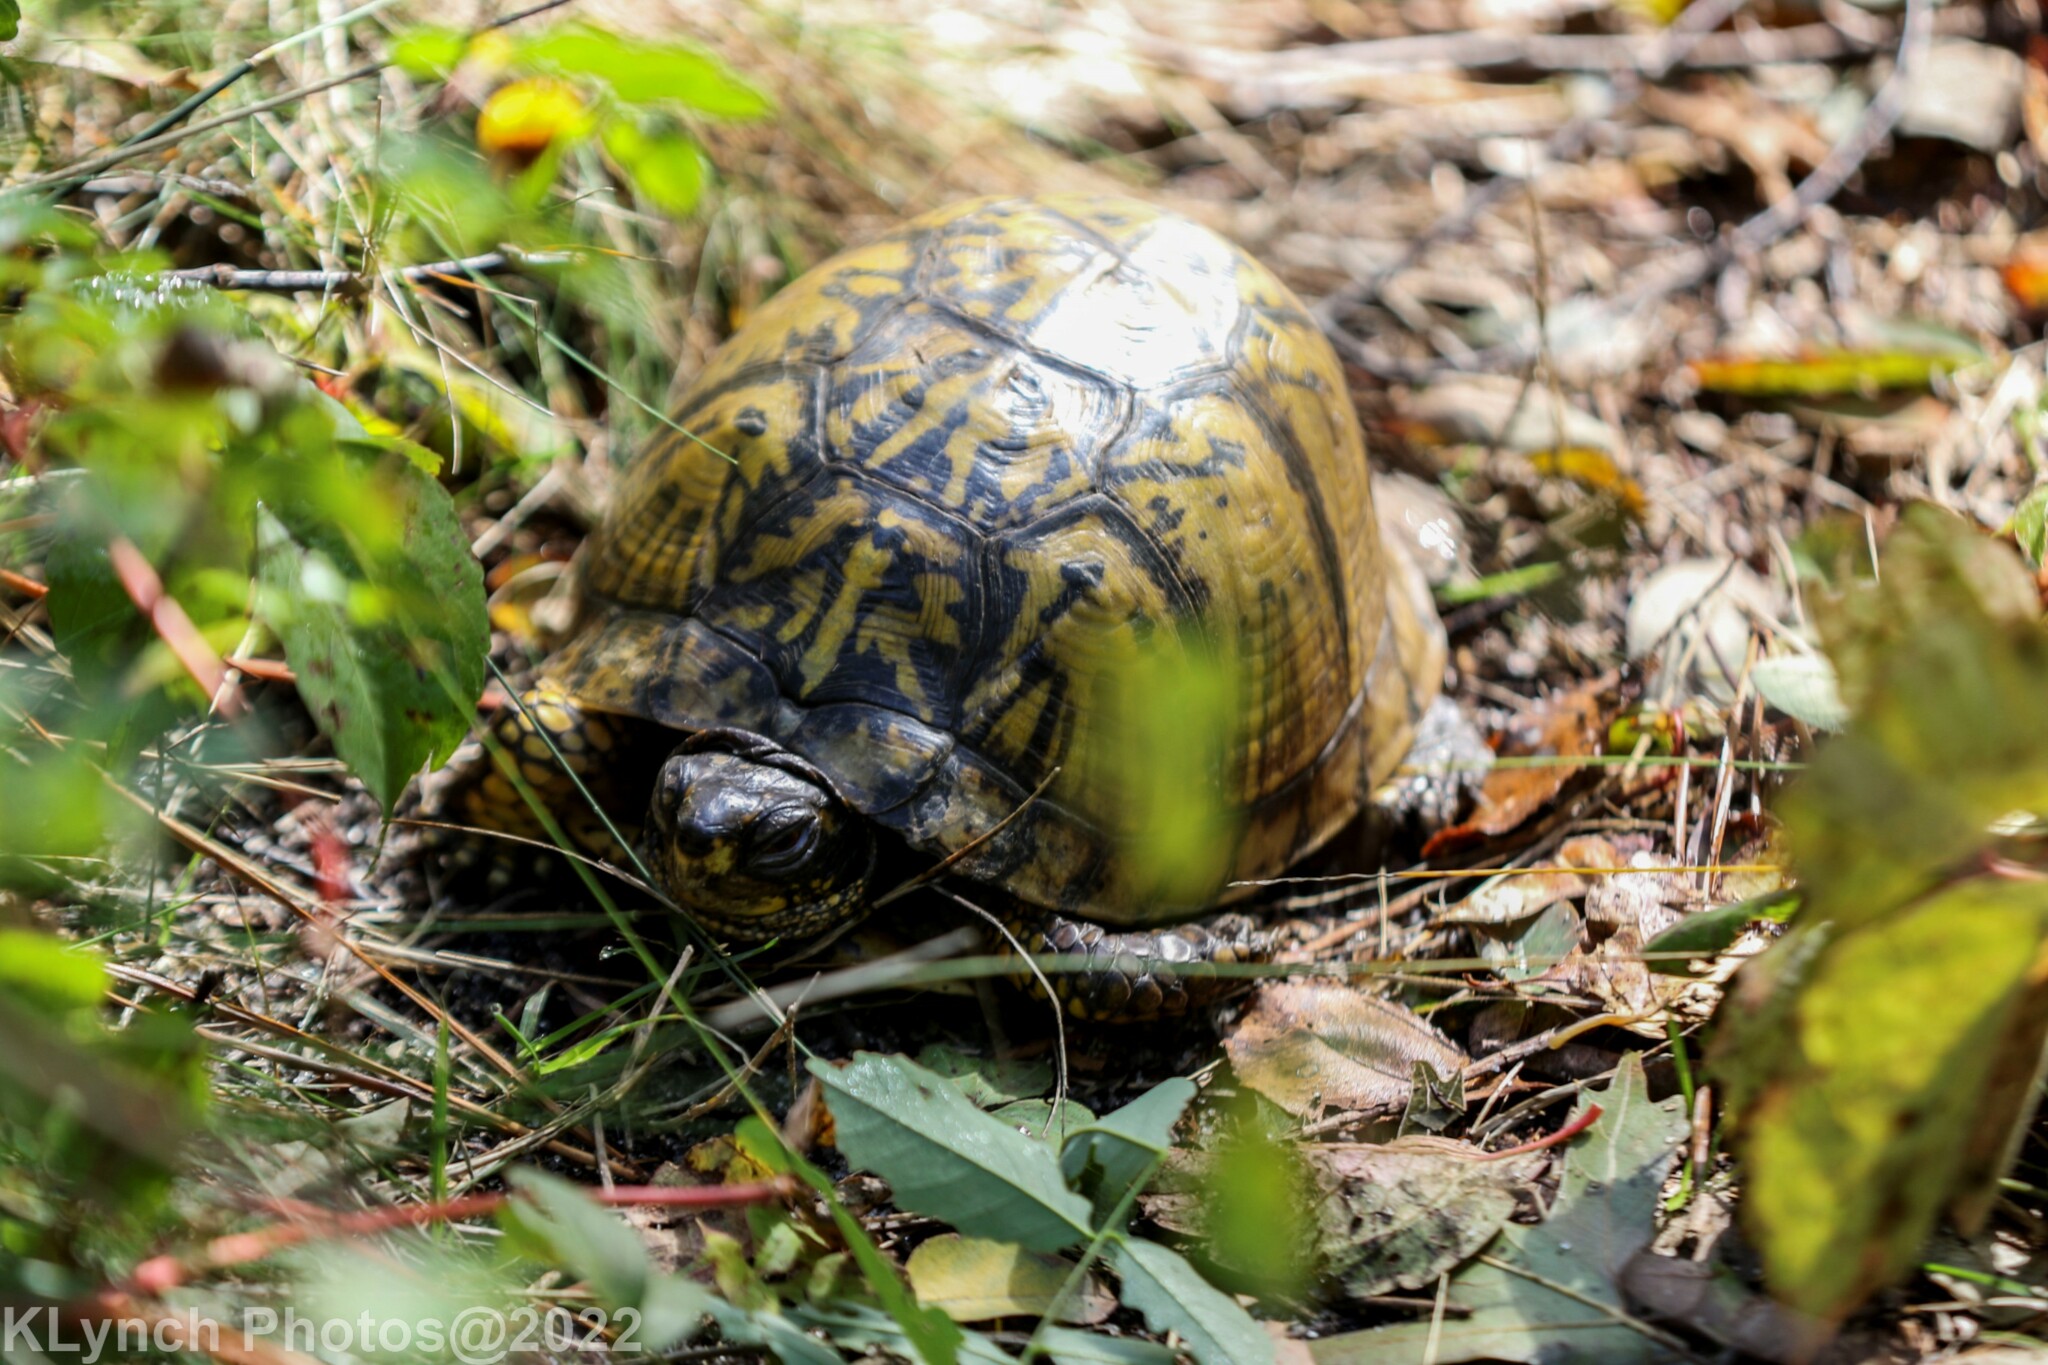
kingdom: Animalia
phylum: Chordata
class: Testudines
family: Emydidae
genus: Terrapene
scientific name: Terrapene carolina
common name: Common box turtle
